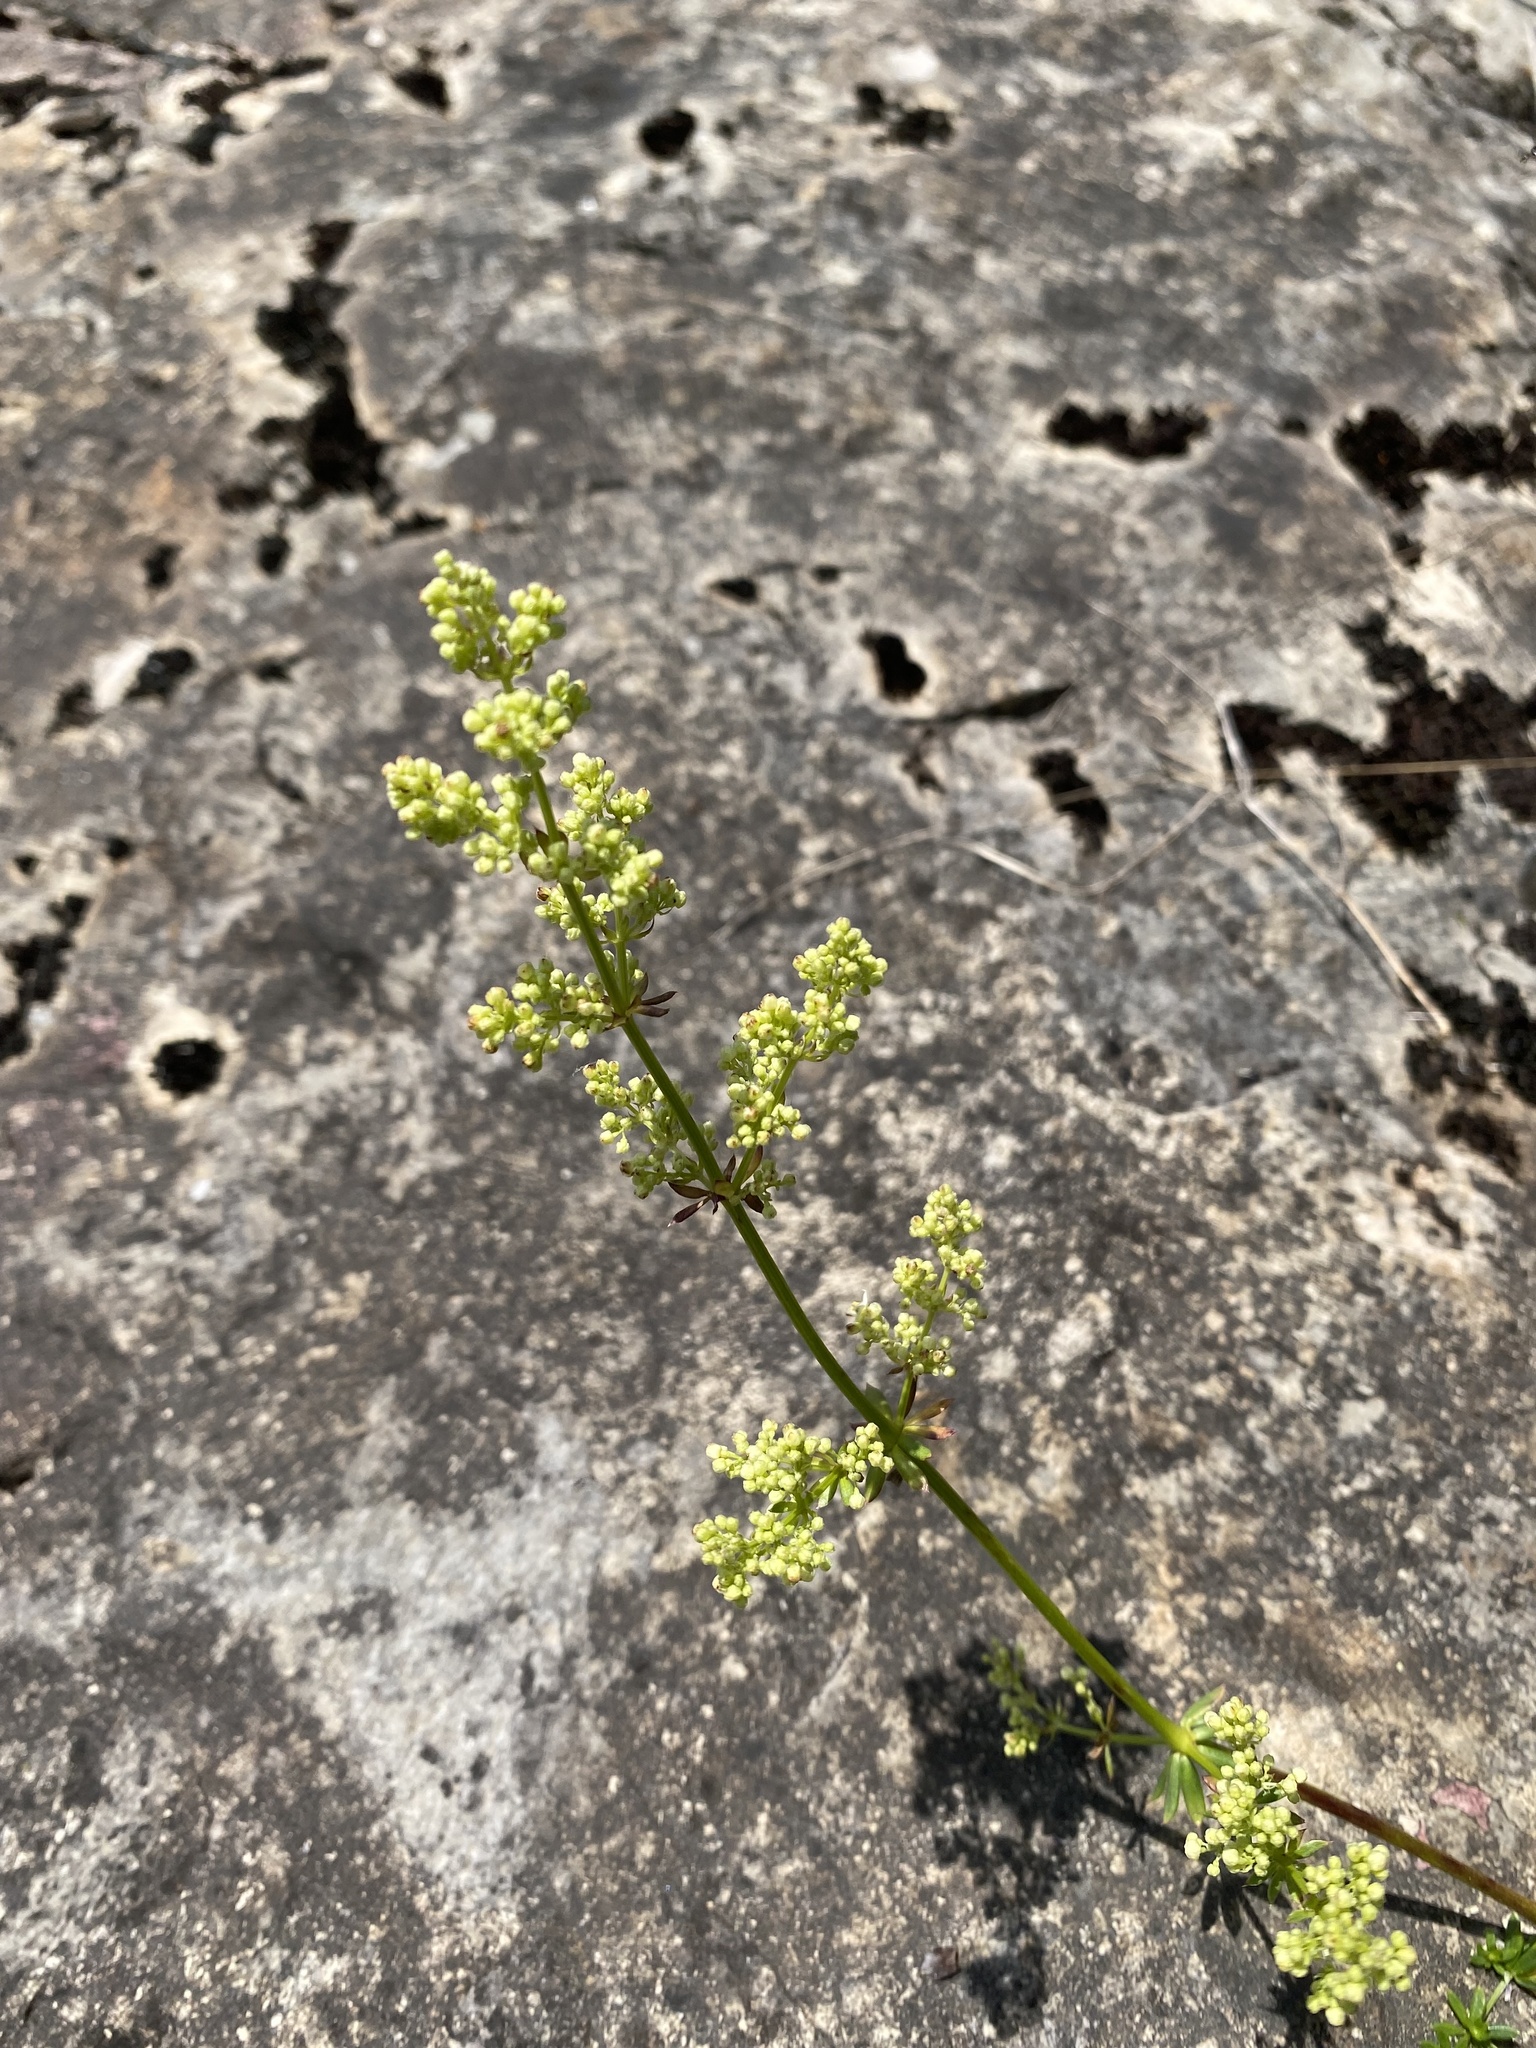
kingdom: Plantae
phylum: Tracheophyta
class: Magnoliopsida
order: Gentianales
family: Rubiaceae
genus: Galium
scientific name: Galium verum
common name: Lady's bedstraw
